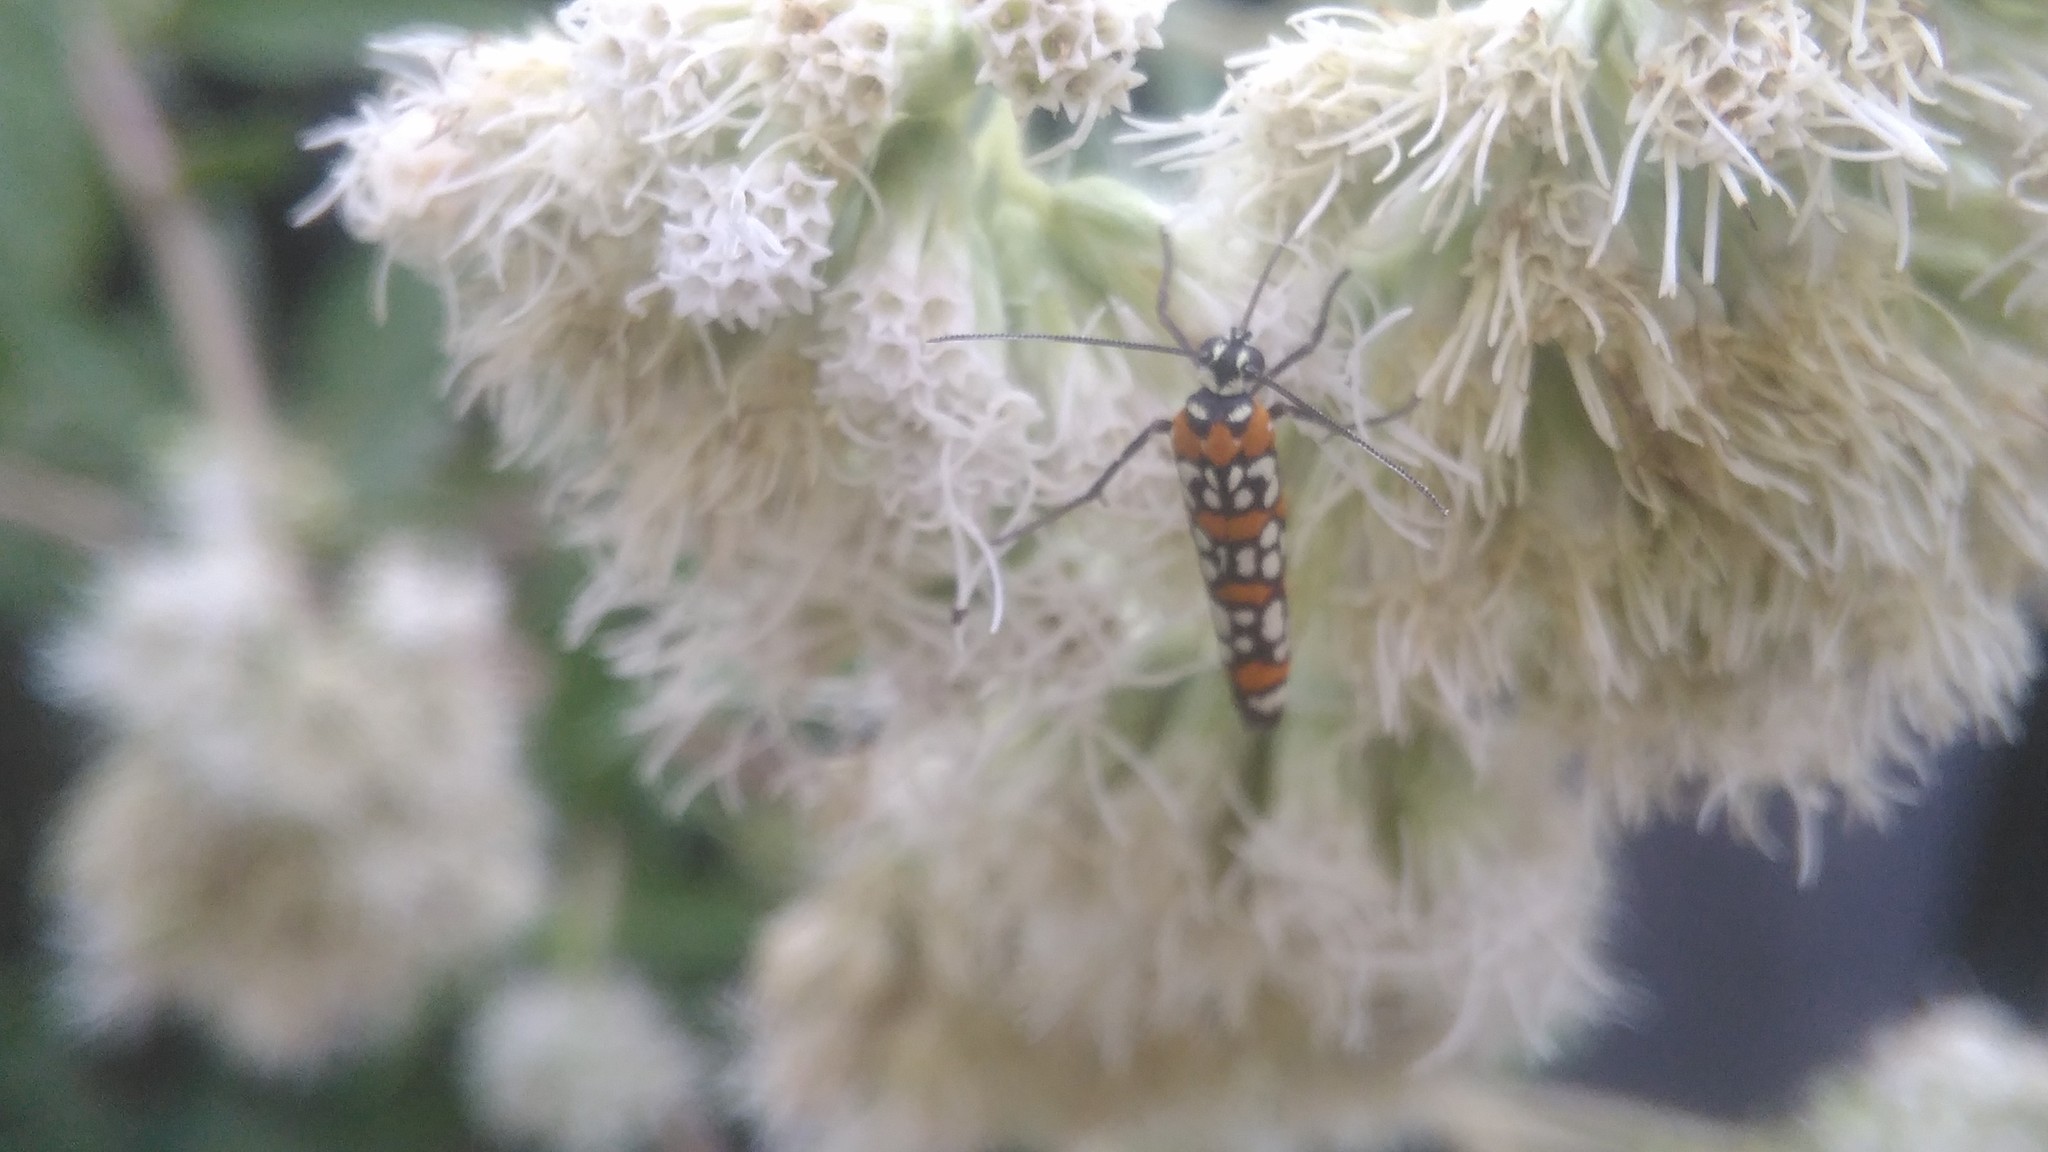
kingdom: Animalia
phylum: Arthropoda
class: Insecta
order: Lepidoptera
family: Attevidae
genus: Atteva
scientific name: Atteva punctella
